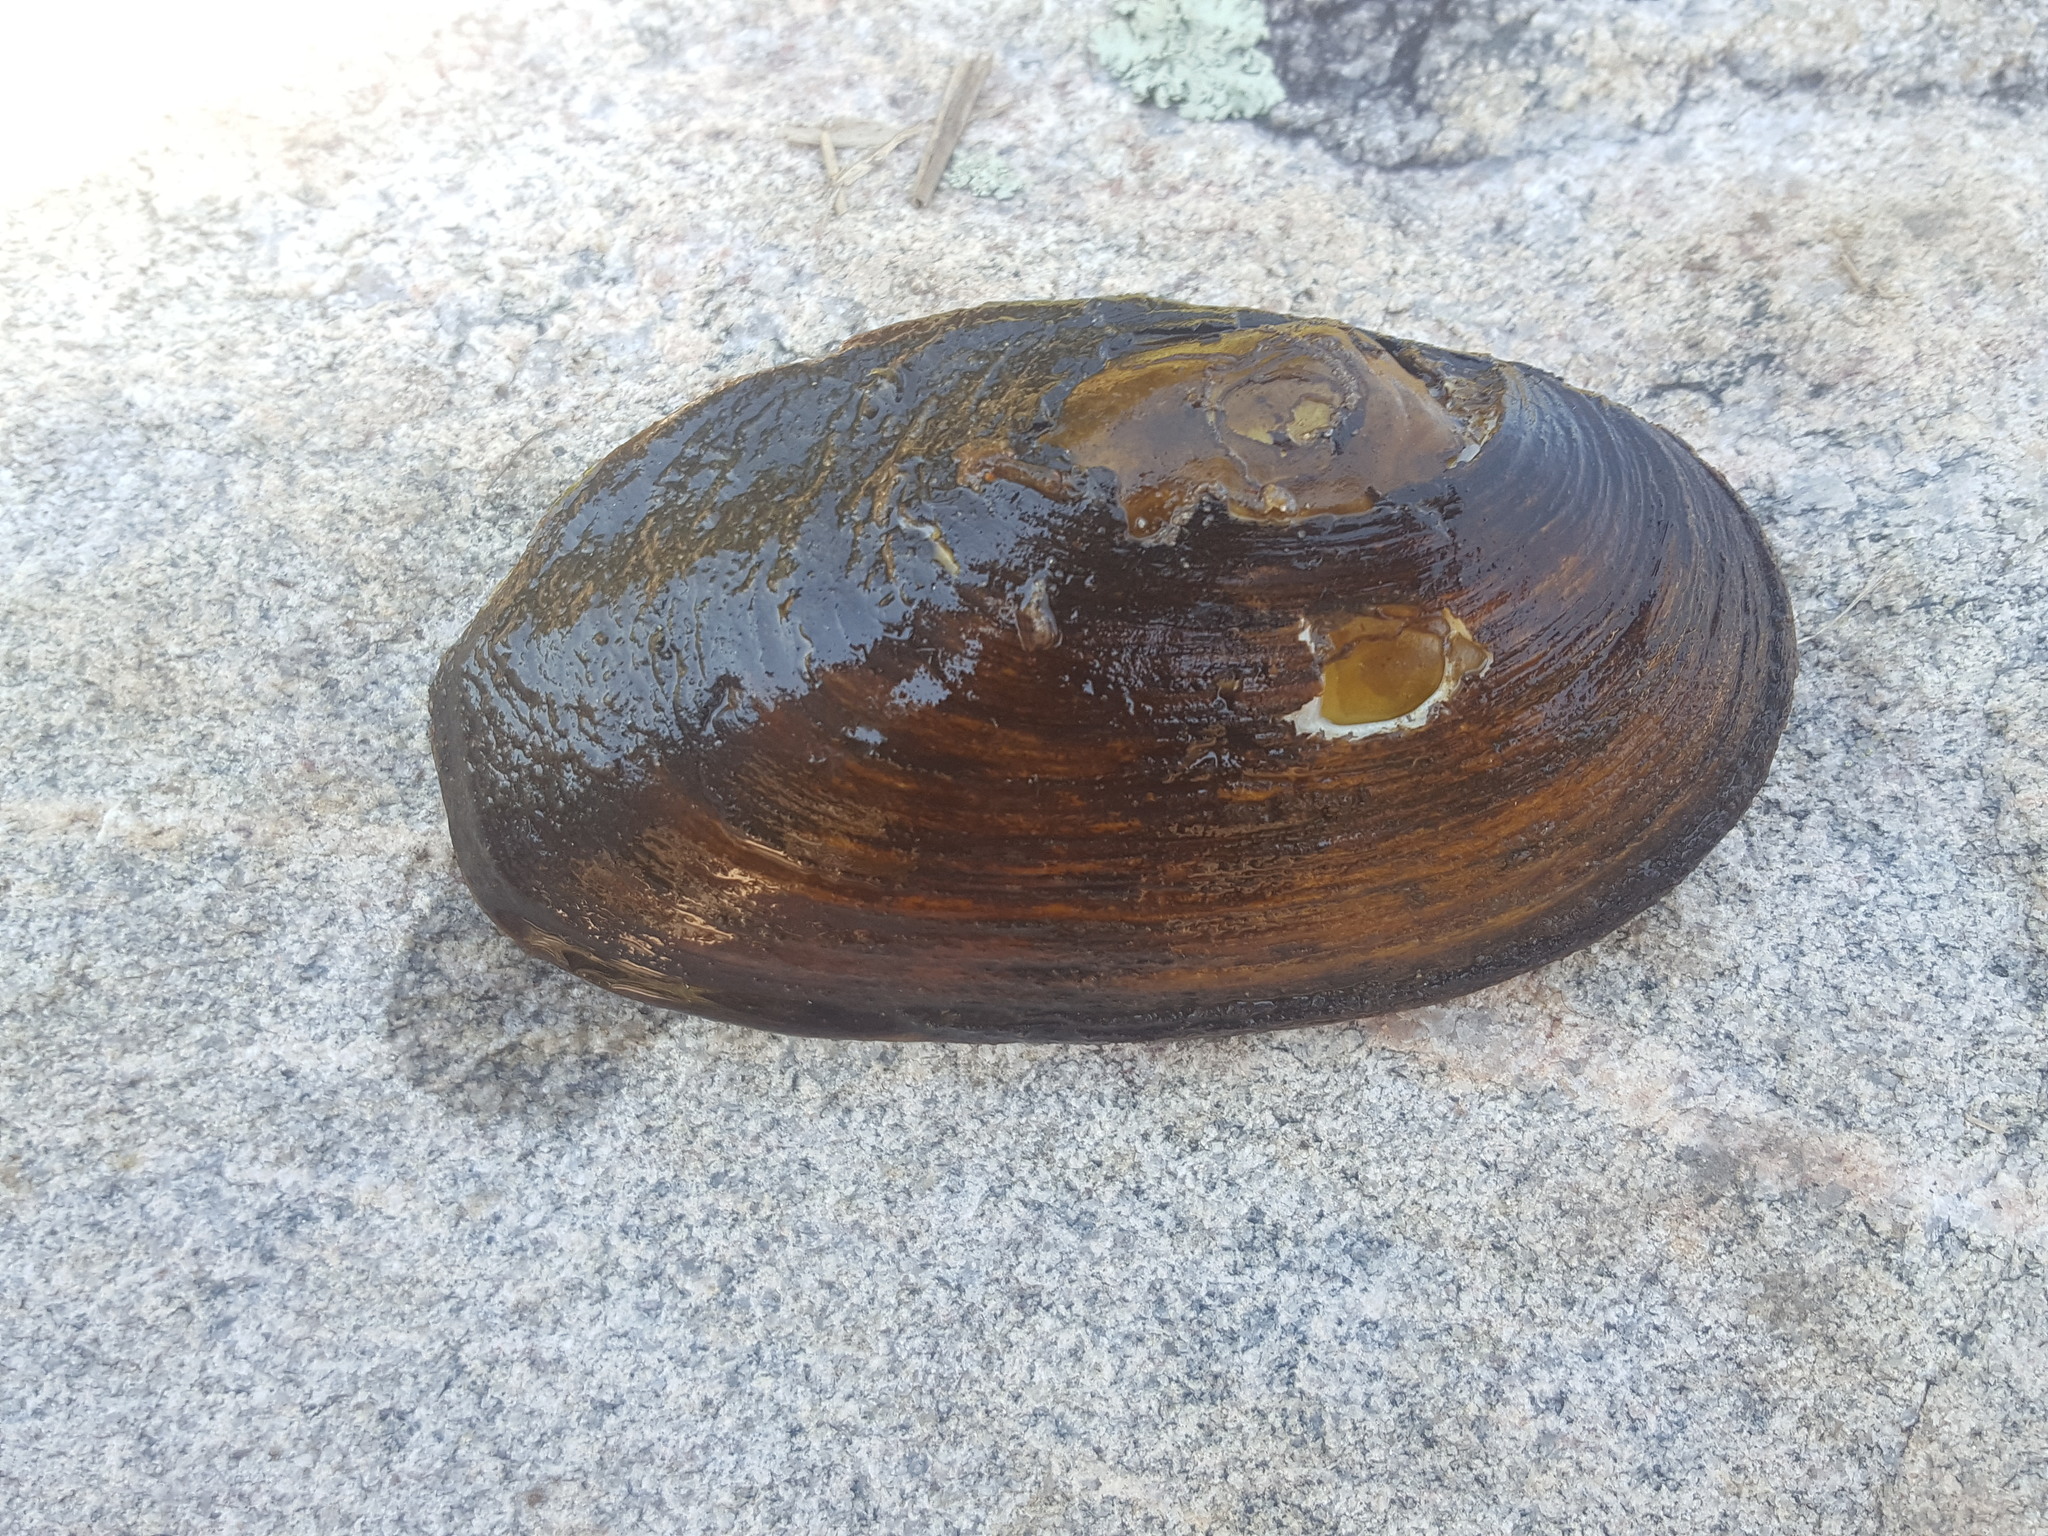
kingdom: Animalia
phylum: Mollusca
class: Bivalvia
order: Unionida
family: Unionidae
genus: Elliptio
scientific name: Elliptio complanata
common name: Eastern elliptio
